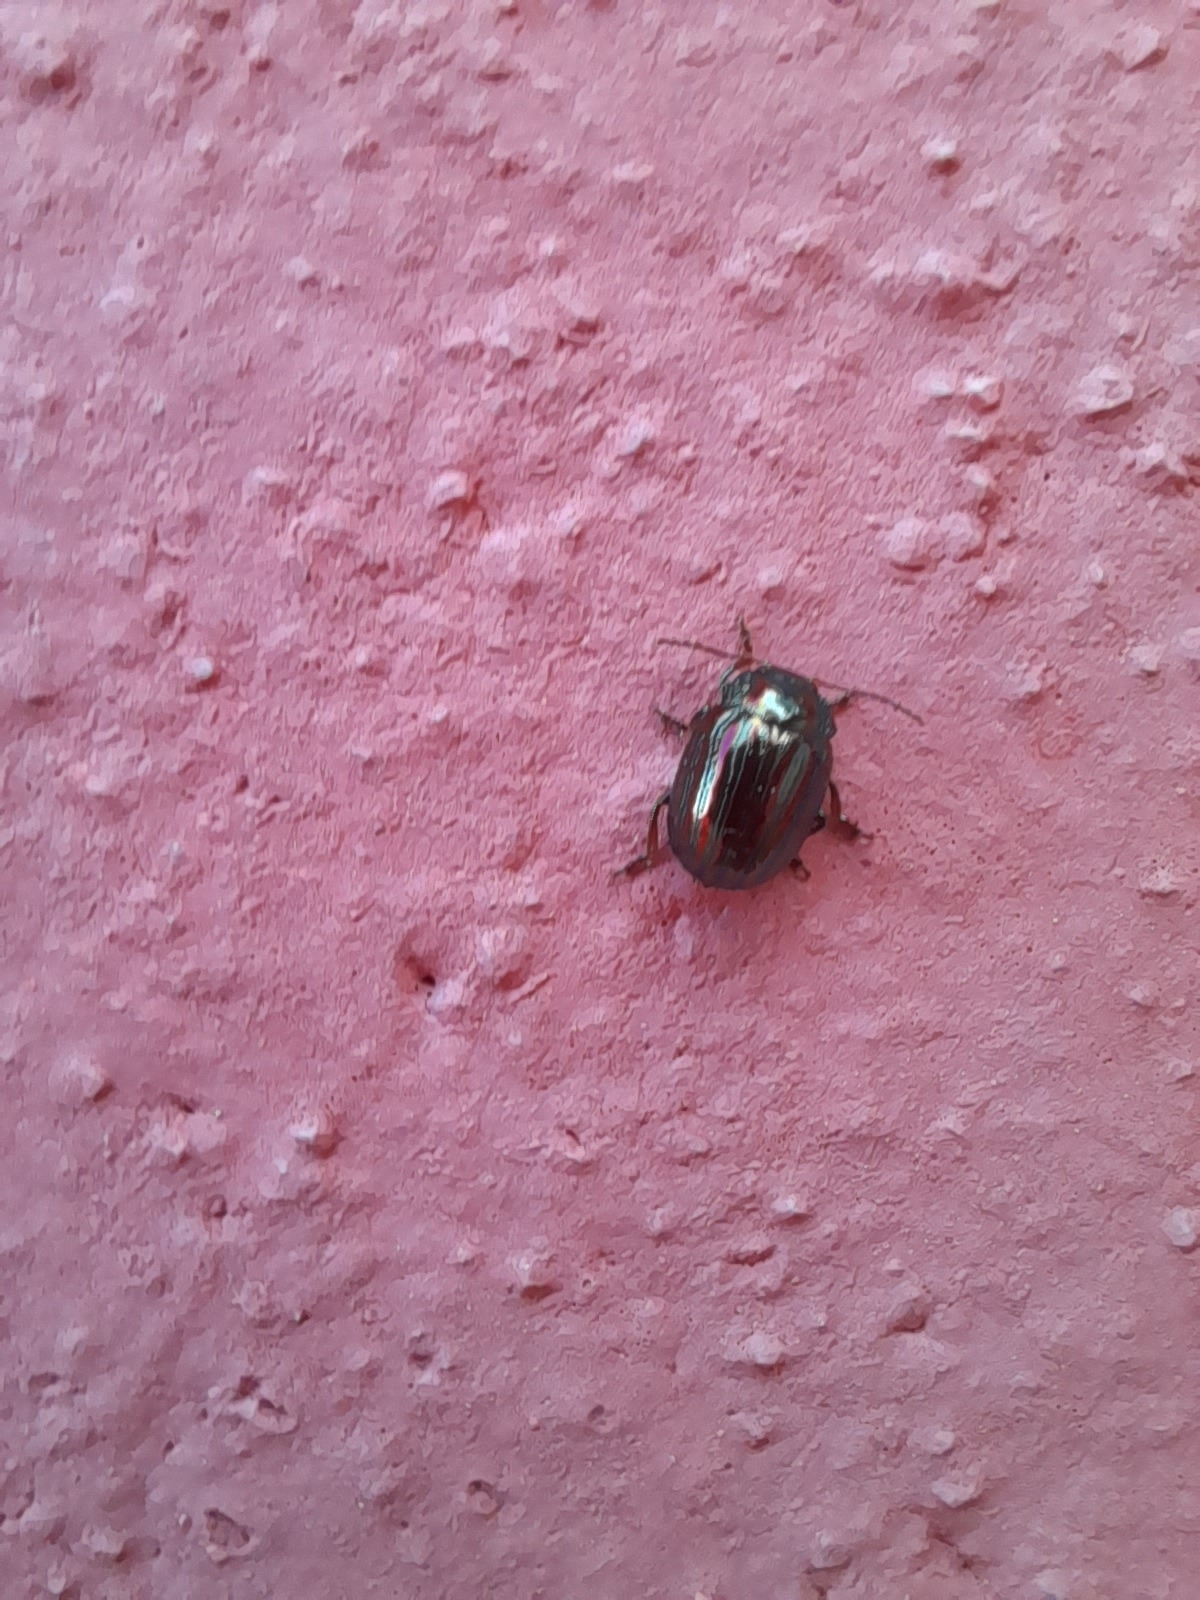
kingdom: Animalia
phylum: Arthropoda
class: Insecta
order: Coleoptera
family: Chrysomelidae
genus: Chrysolina
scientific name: Chrysolina americana
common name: Rosemary beetle
